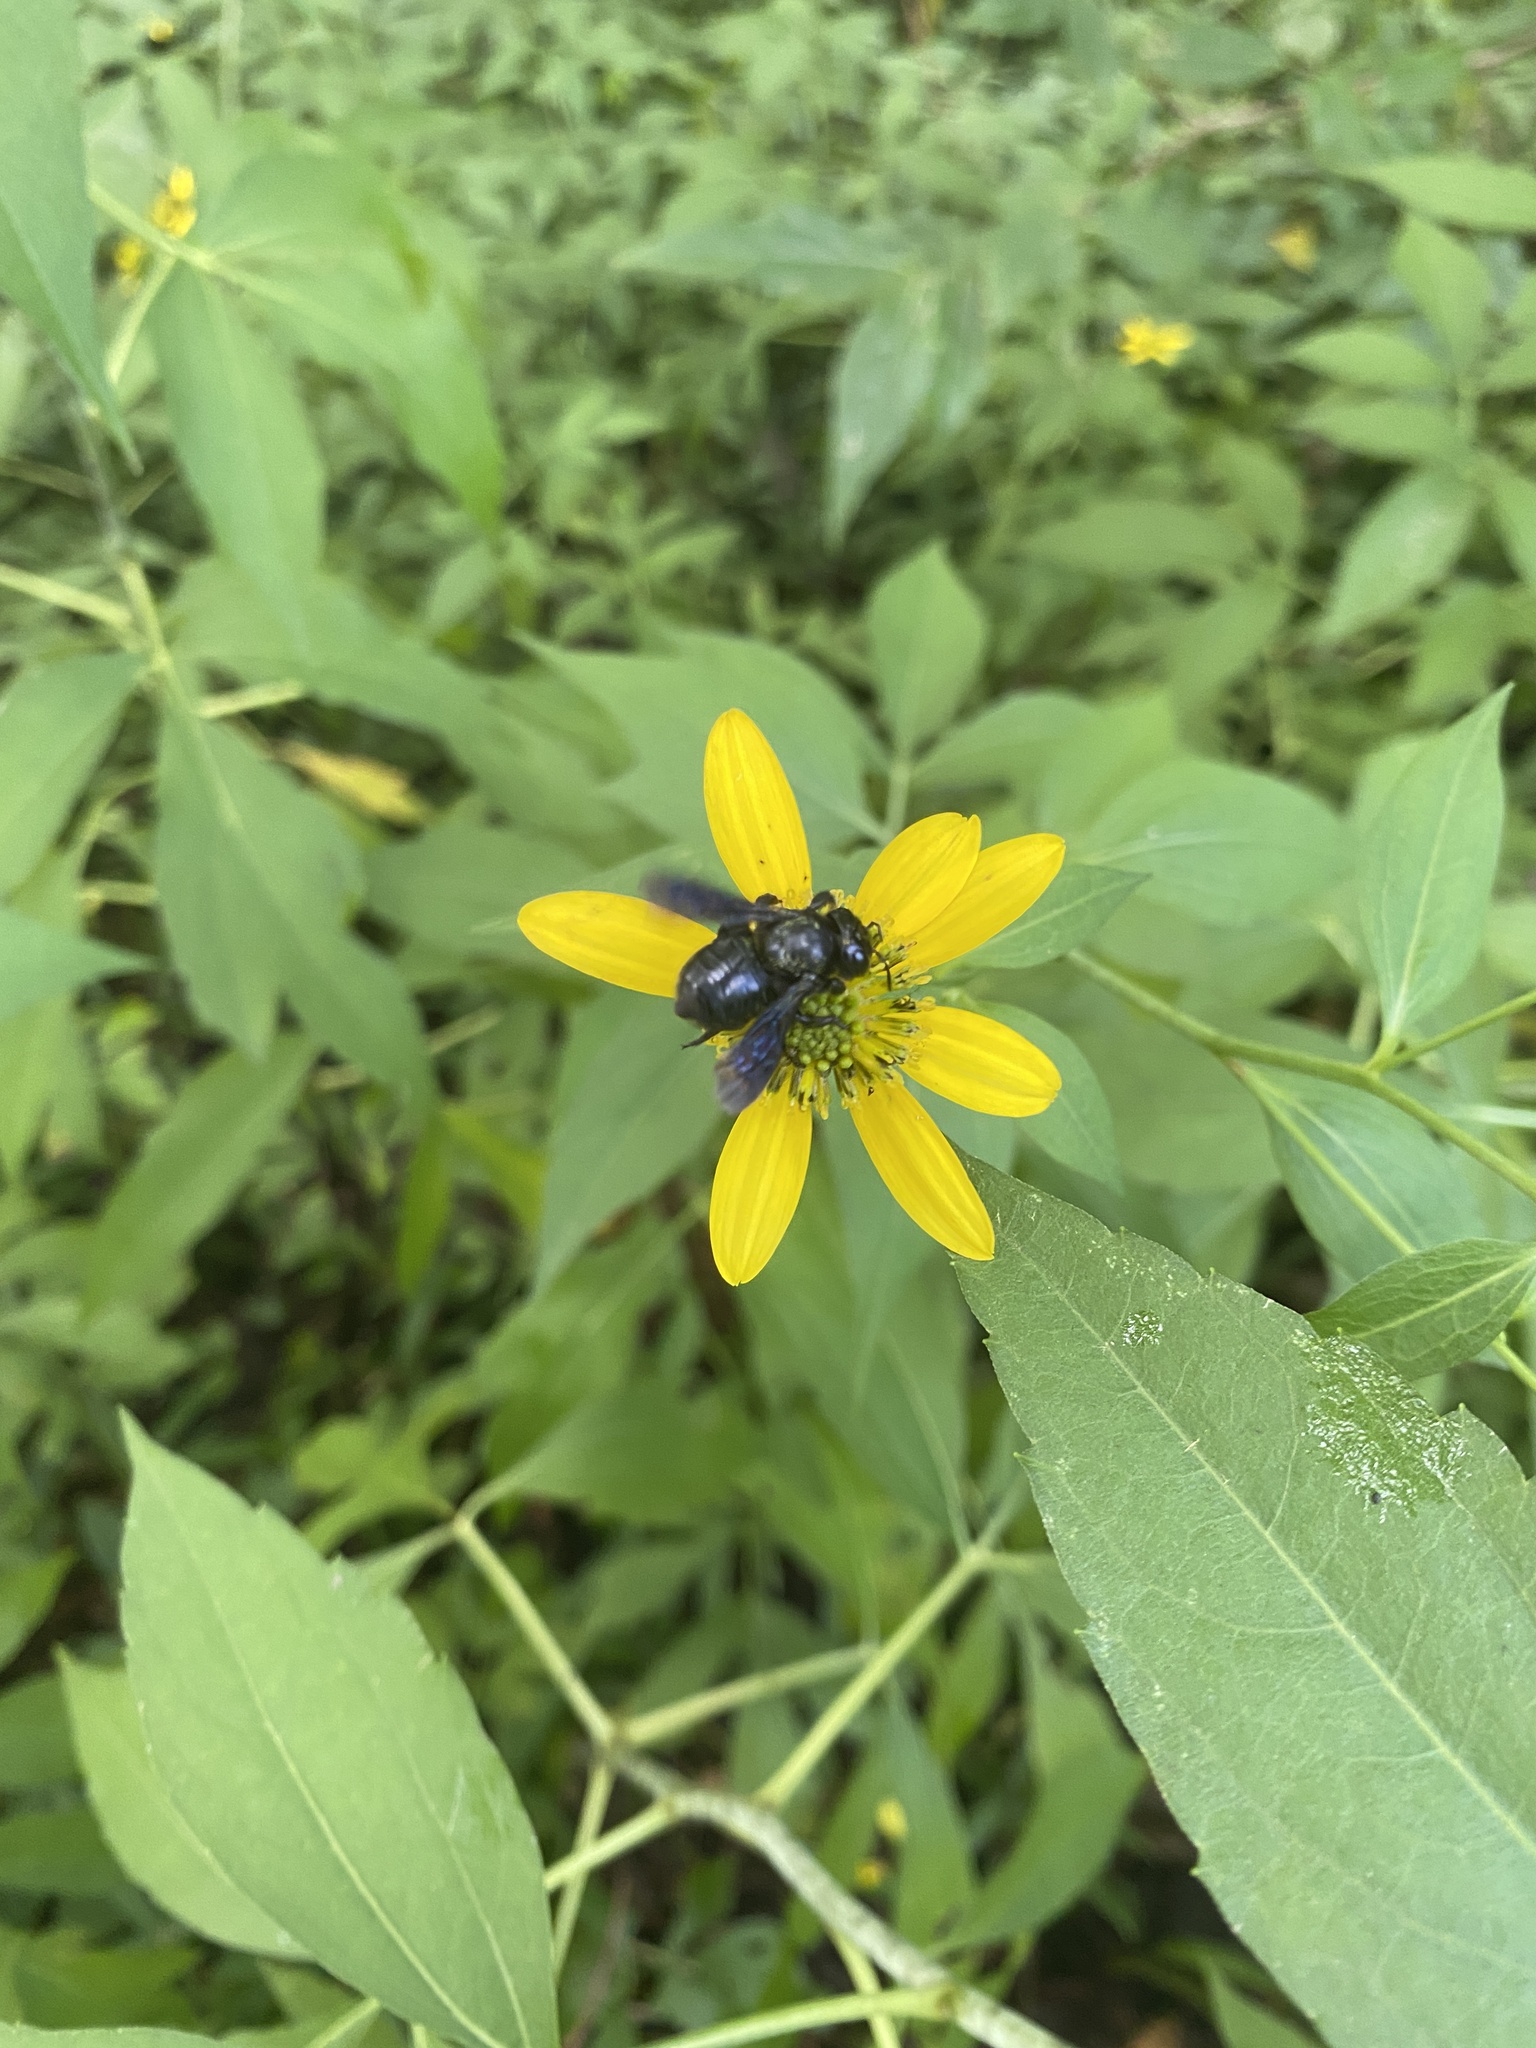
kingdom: Animalia
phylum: Arthropoda
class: Insecta
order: Hymenoptera
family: Megachilidae
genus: Megachile
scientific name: Megachile xylocopoides
